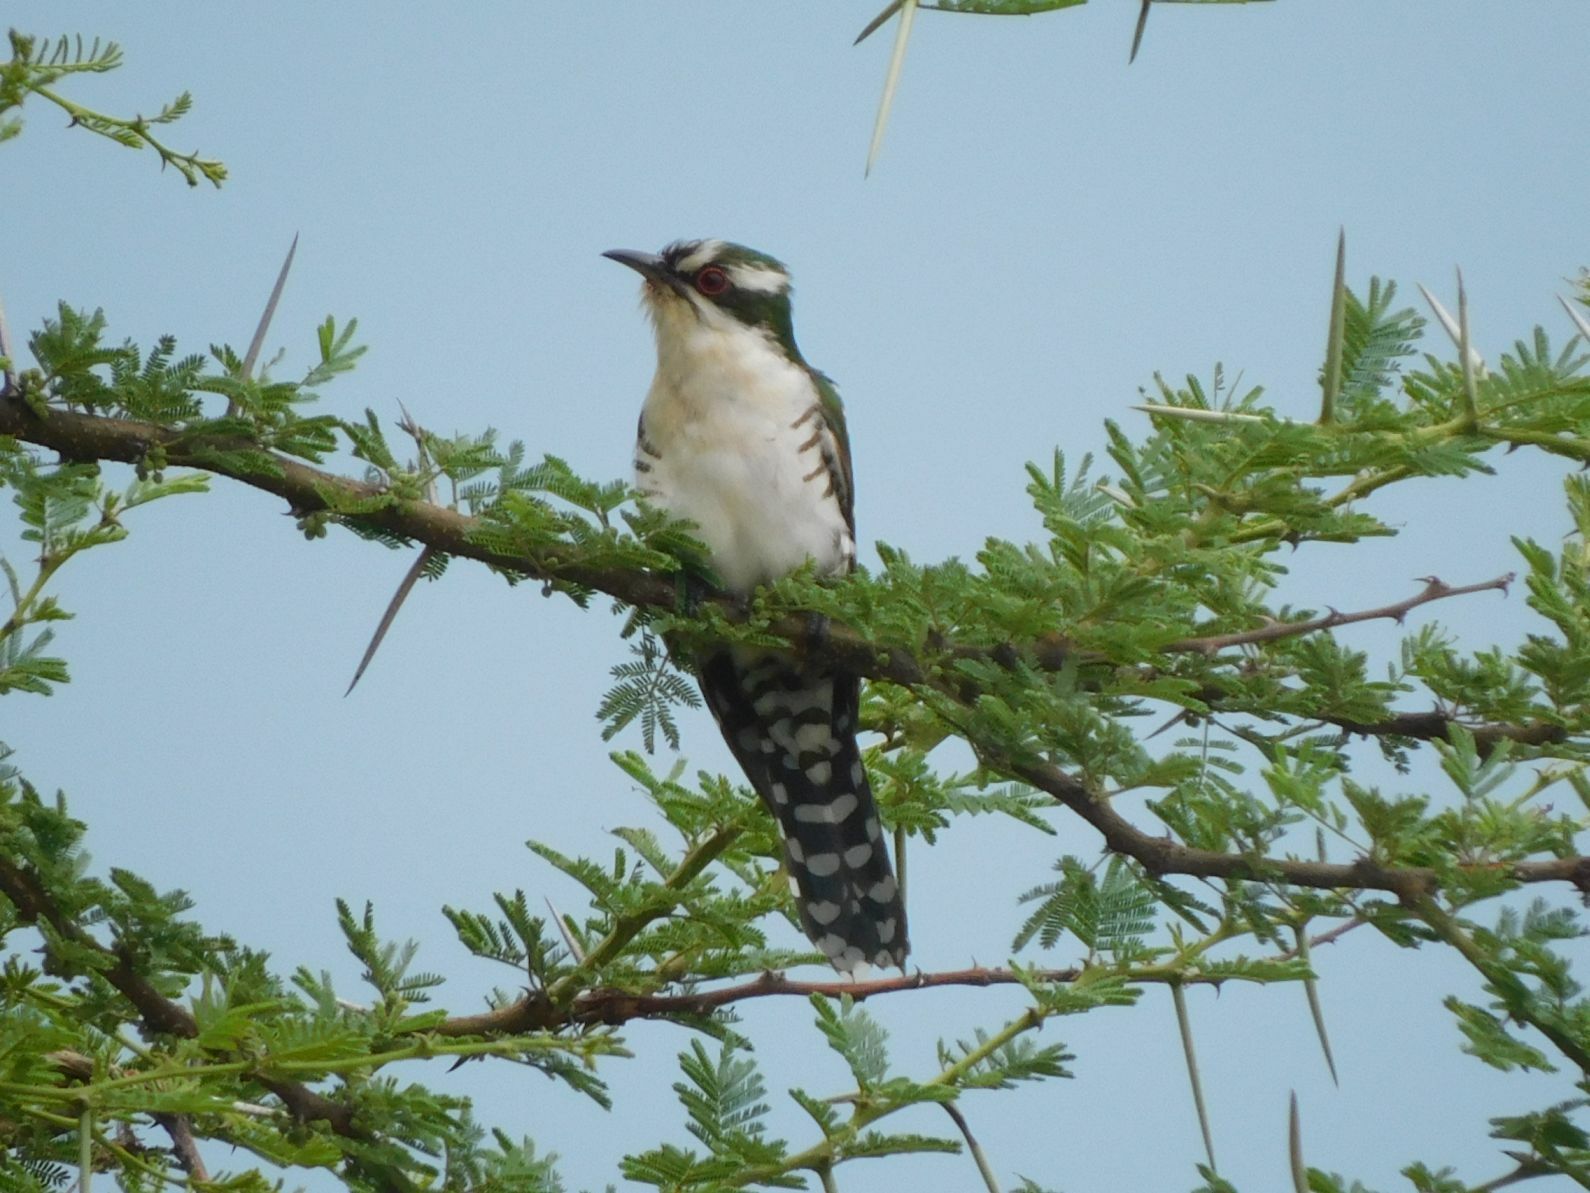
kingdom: Animalia
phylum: Chordata
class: Aves
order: Cuculiformes
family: Cuculidae
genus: Chrysococcyx
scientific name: Chrysococcyx caprius
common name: Diederik cuckoo
